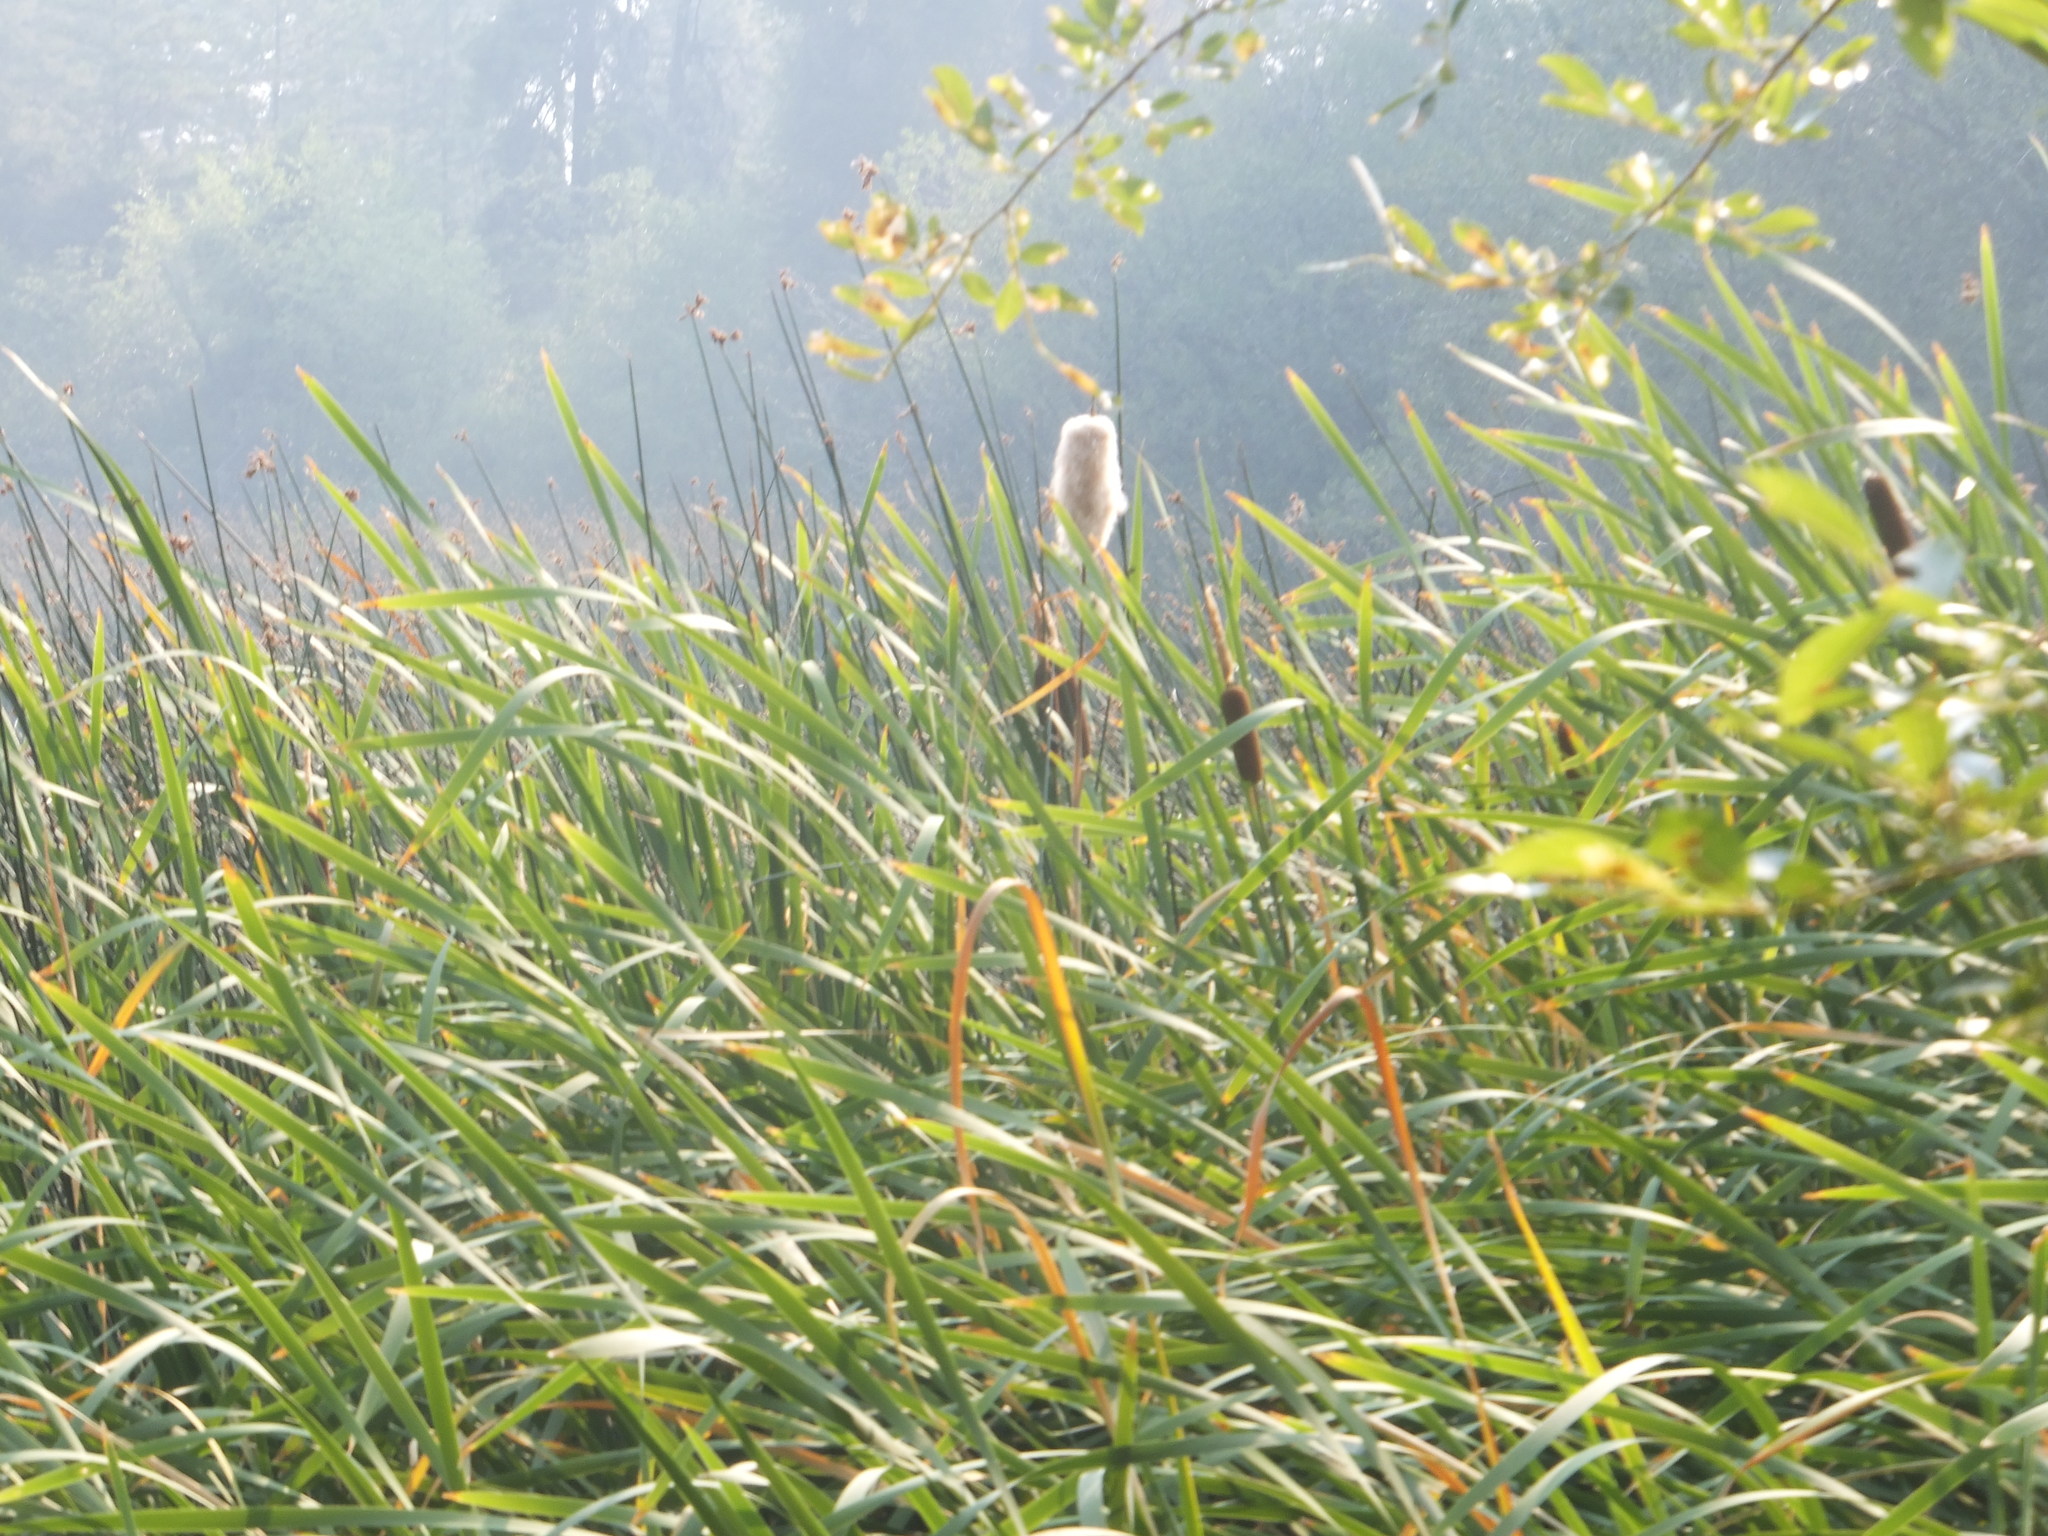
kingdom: Plantae
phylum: Tracheophyta
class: Liliopsida
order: Poales
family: Typhaceae
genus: Typha
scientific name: Typha latifolia
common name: Broadleaf cattail
